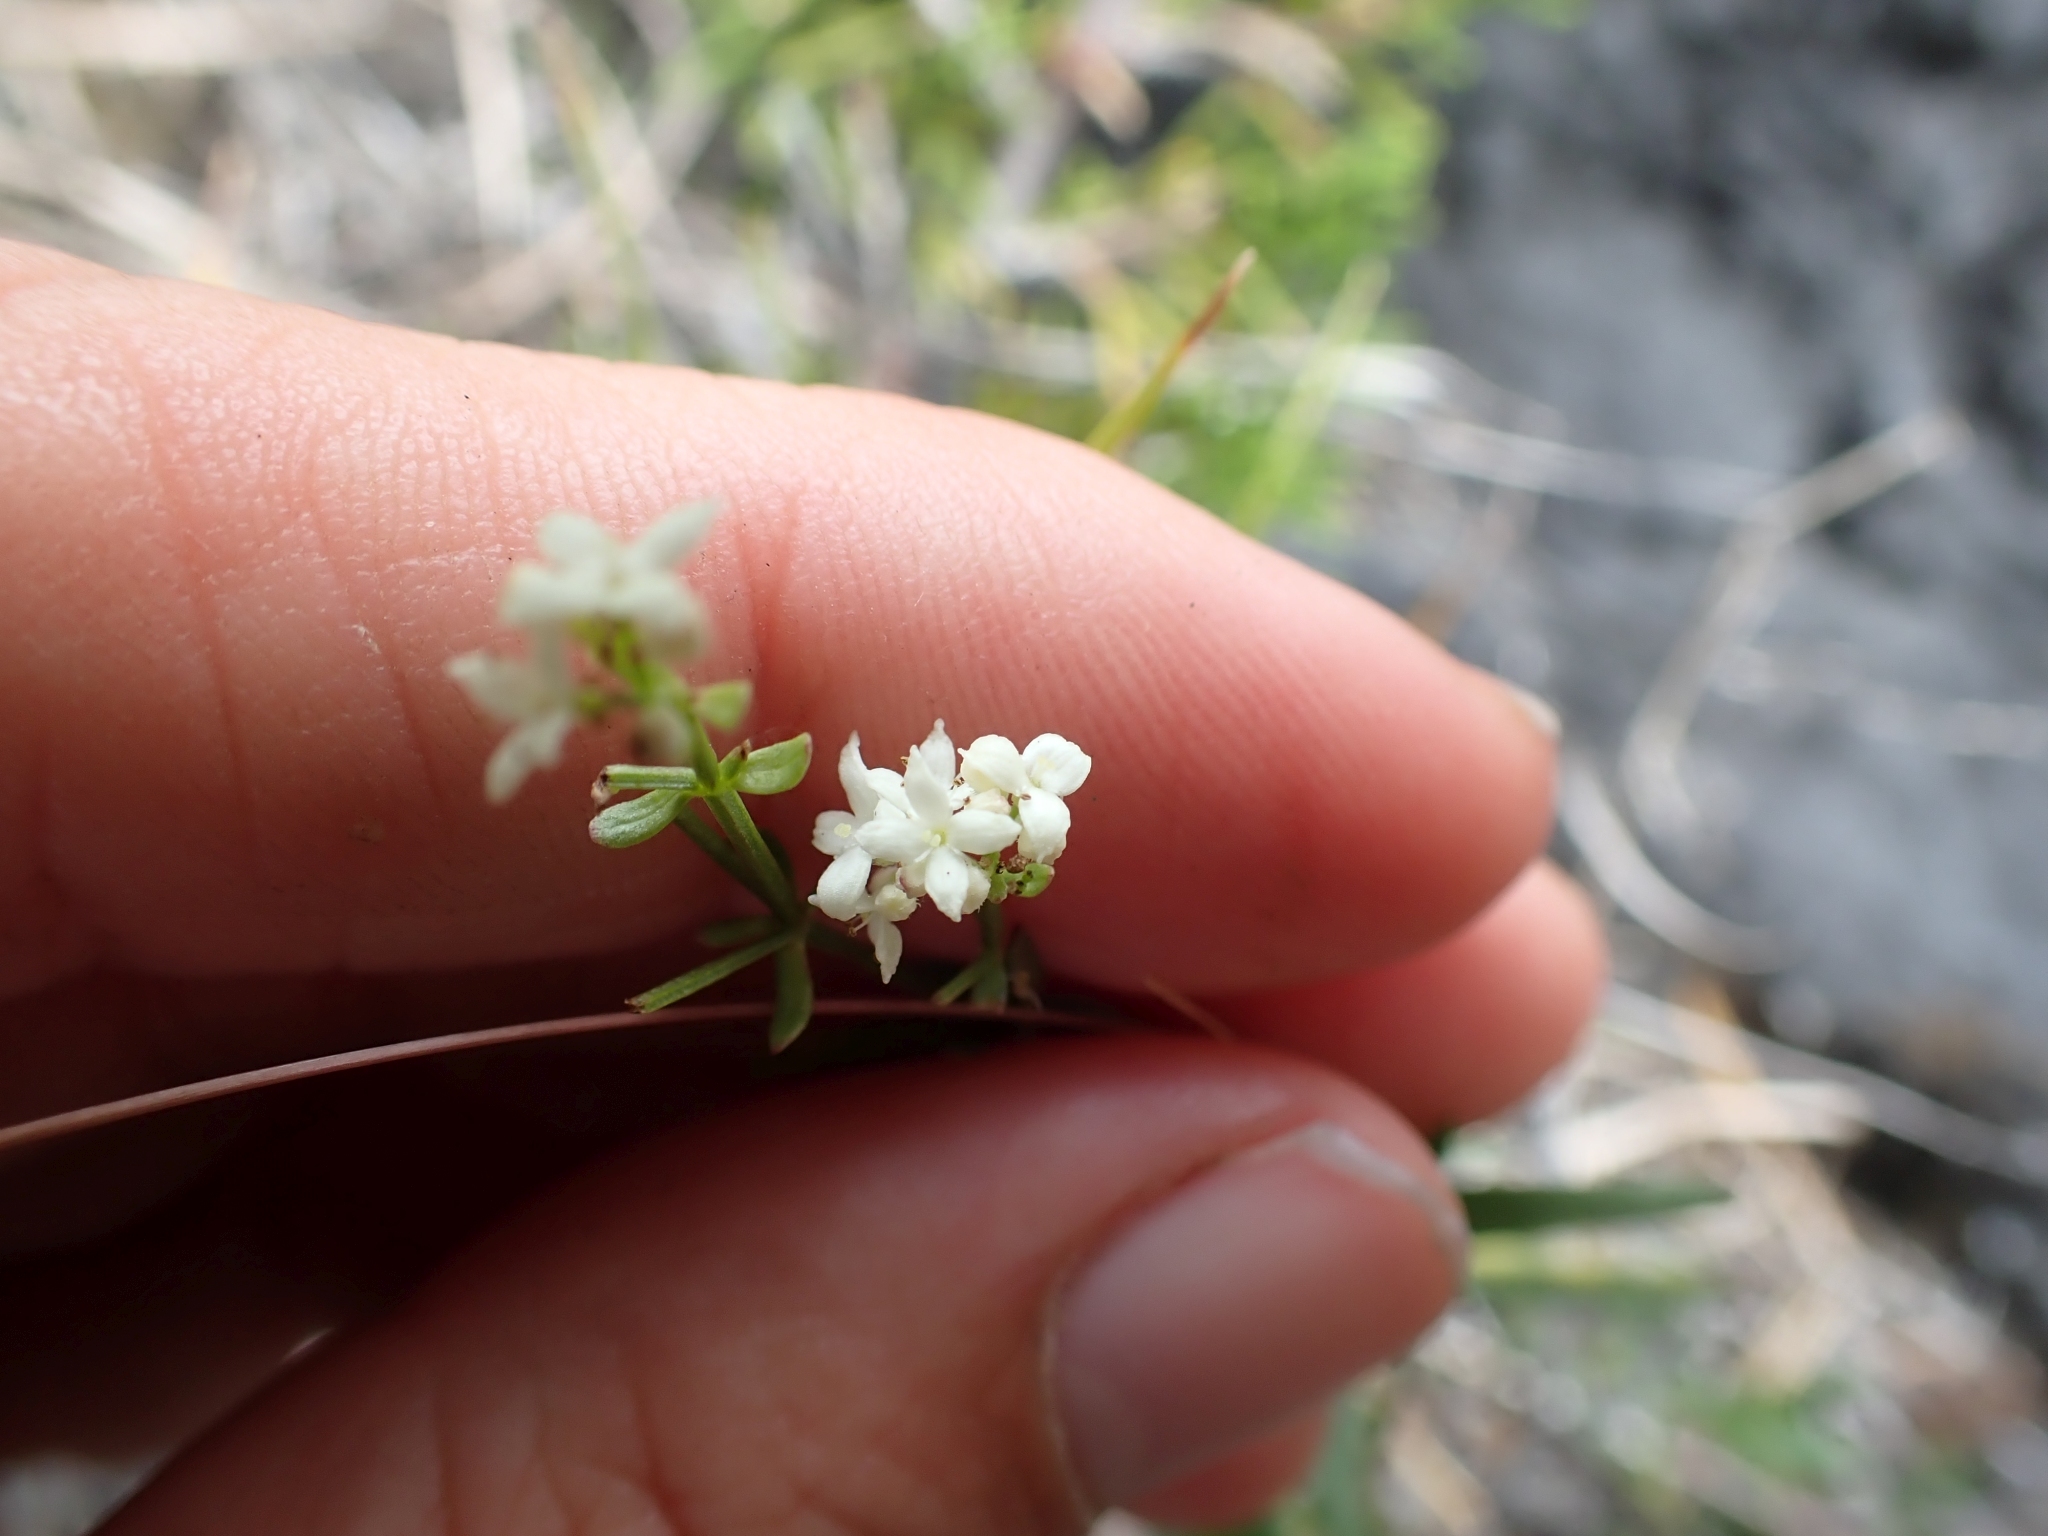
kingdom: Plantae
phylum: Tracheophyta
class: Magnoliopsida
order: Gentianales
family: Rubiaceae
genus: Galium
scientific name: Galium boreale
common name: Northern bedstraw
